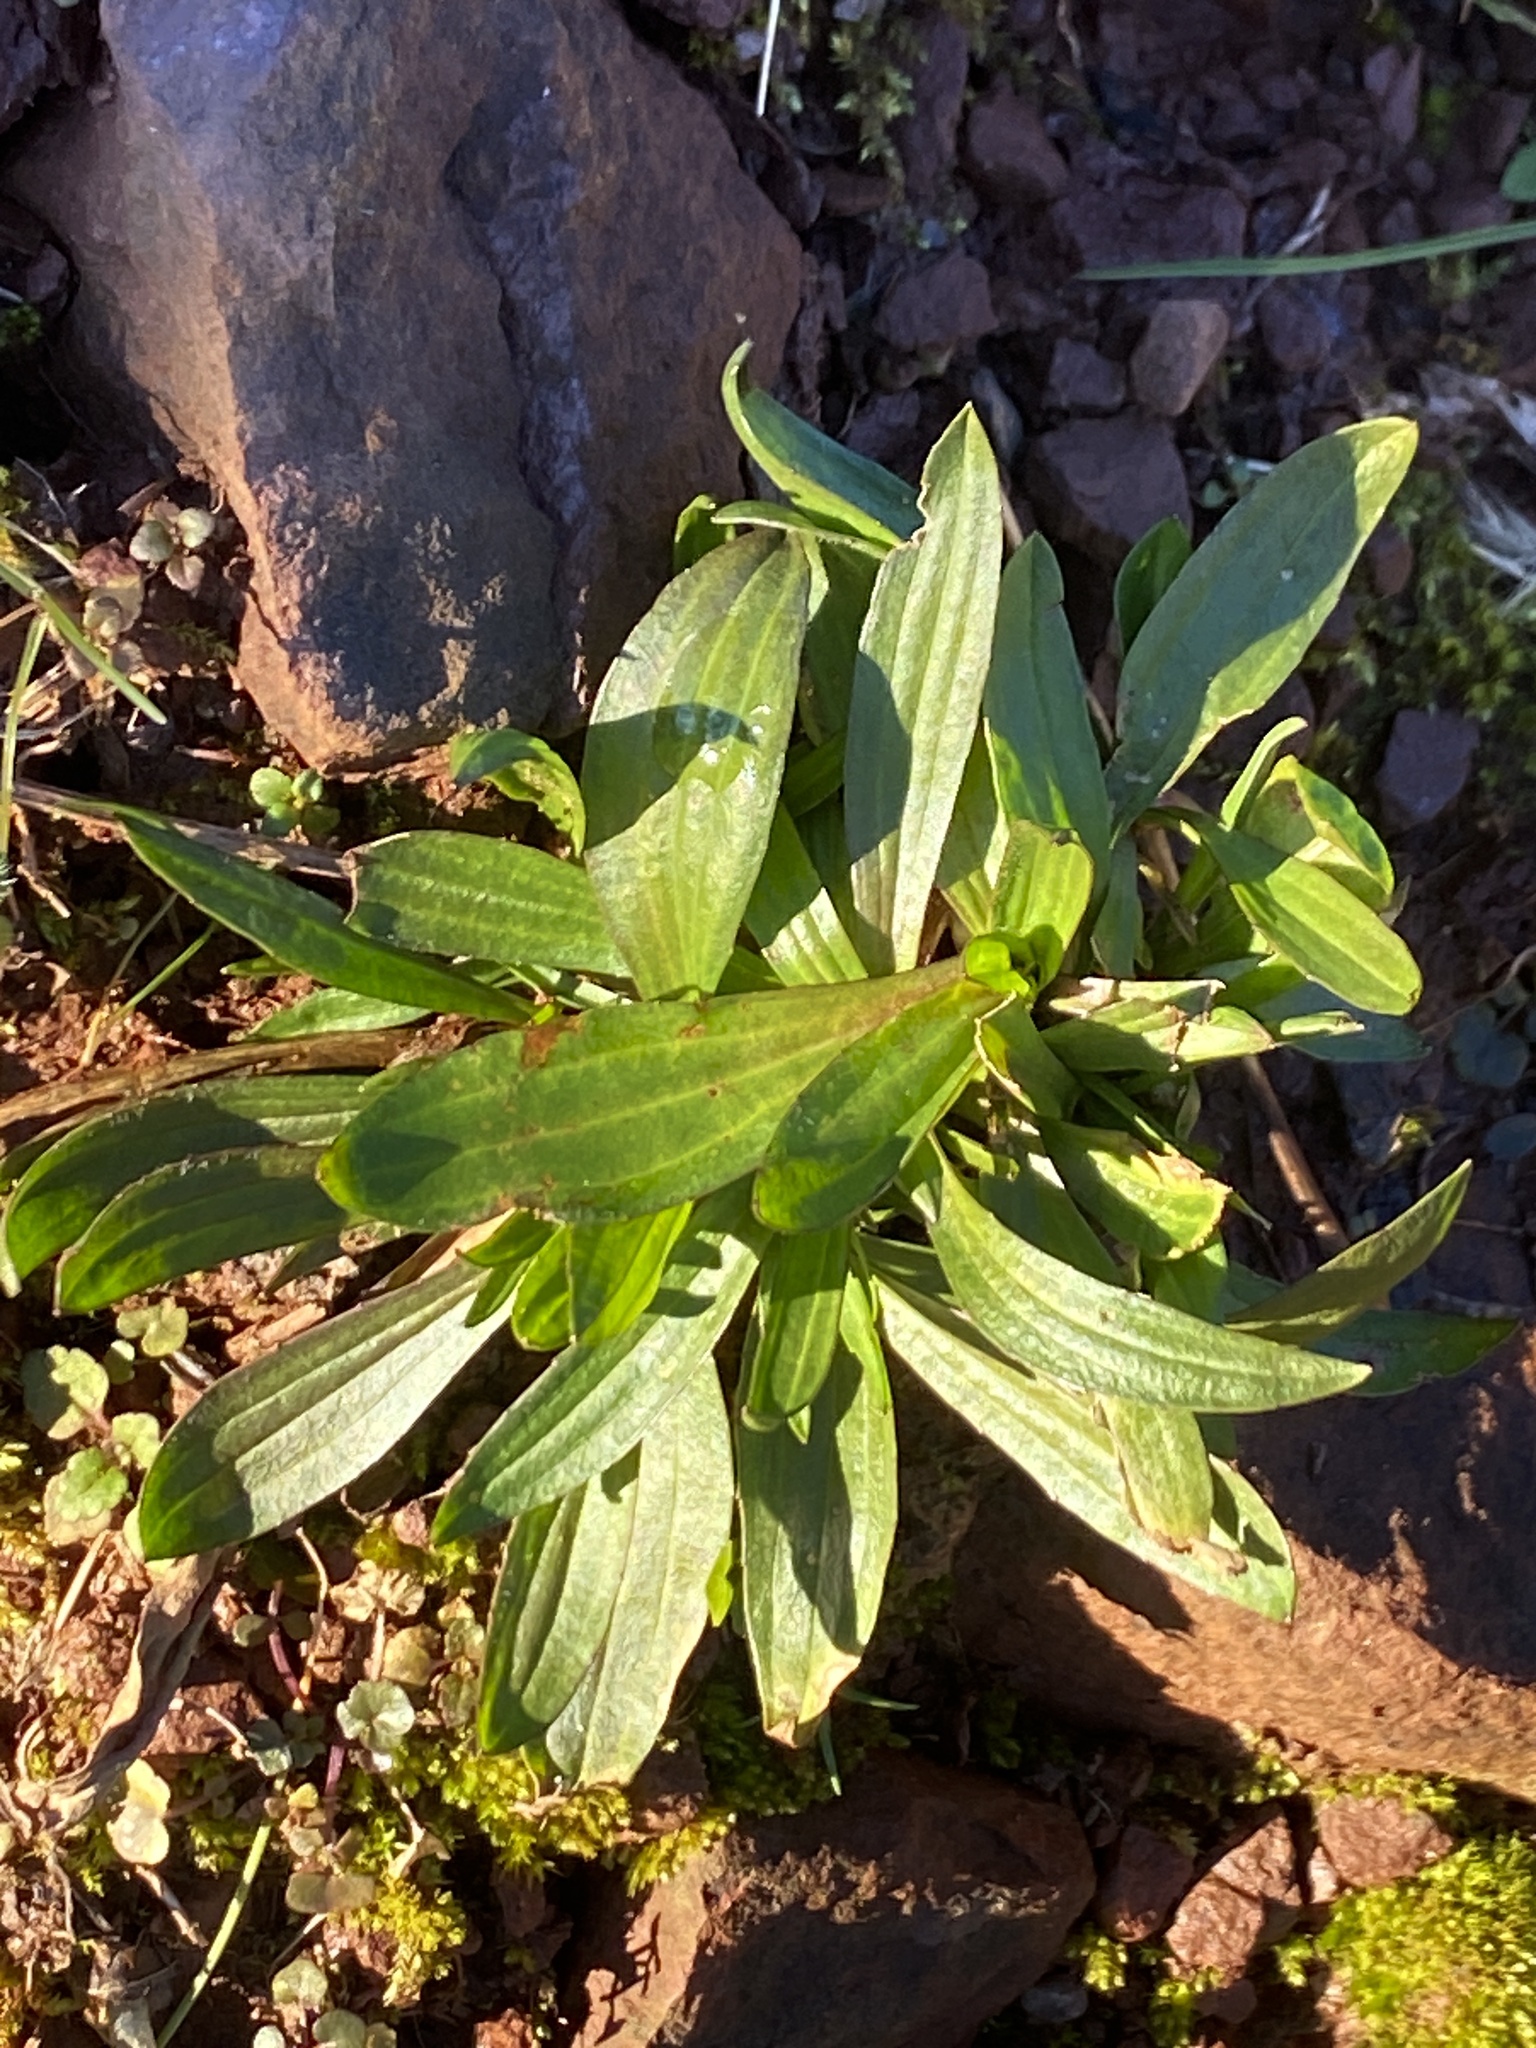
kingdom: Plantae
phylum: Tracheophyta
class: Magnoliopsida
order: Lamiales
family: Plantaginaceae
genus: Plantago
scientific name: Plantago lanceolata
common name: Ribwort plantain
